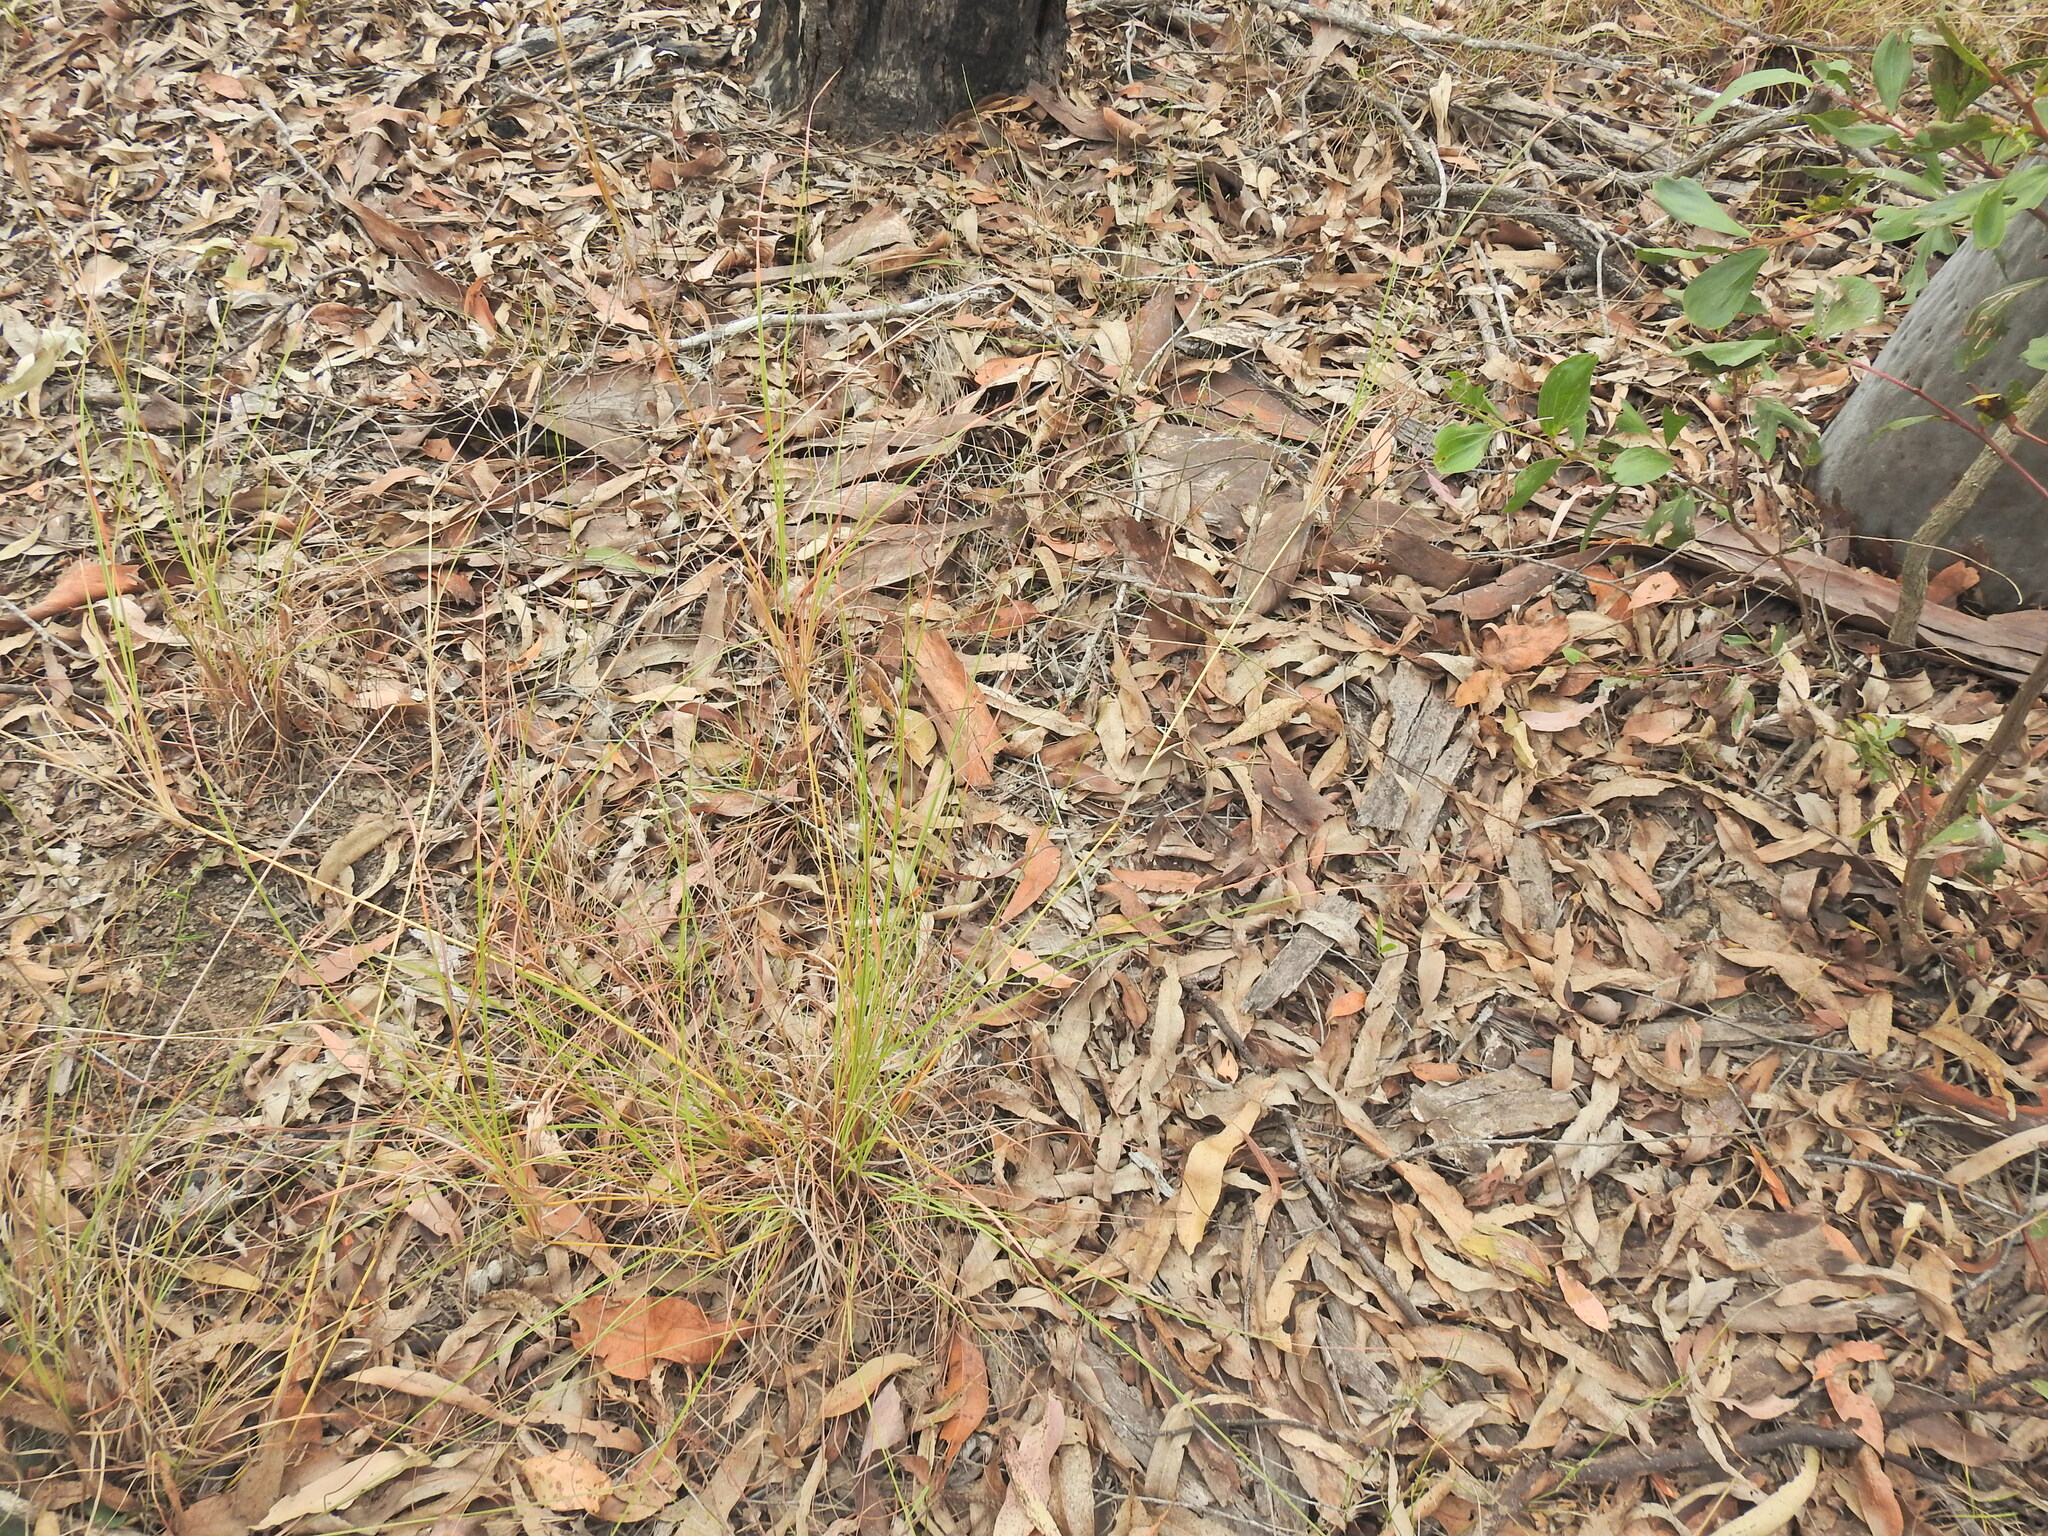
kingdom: Plantae
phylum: Tracheophyta
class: Liliopsida
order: Poales
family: Poaceae
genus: Themeda
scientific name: Themeda triandra
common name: Kangaroo grass
